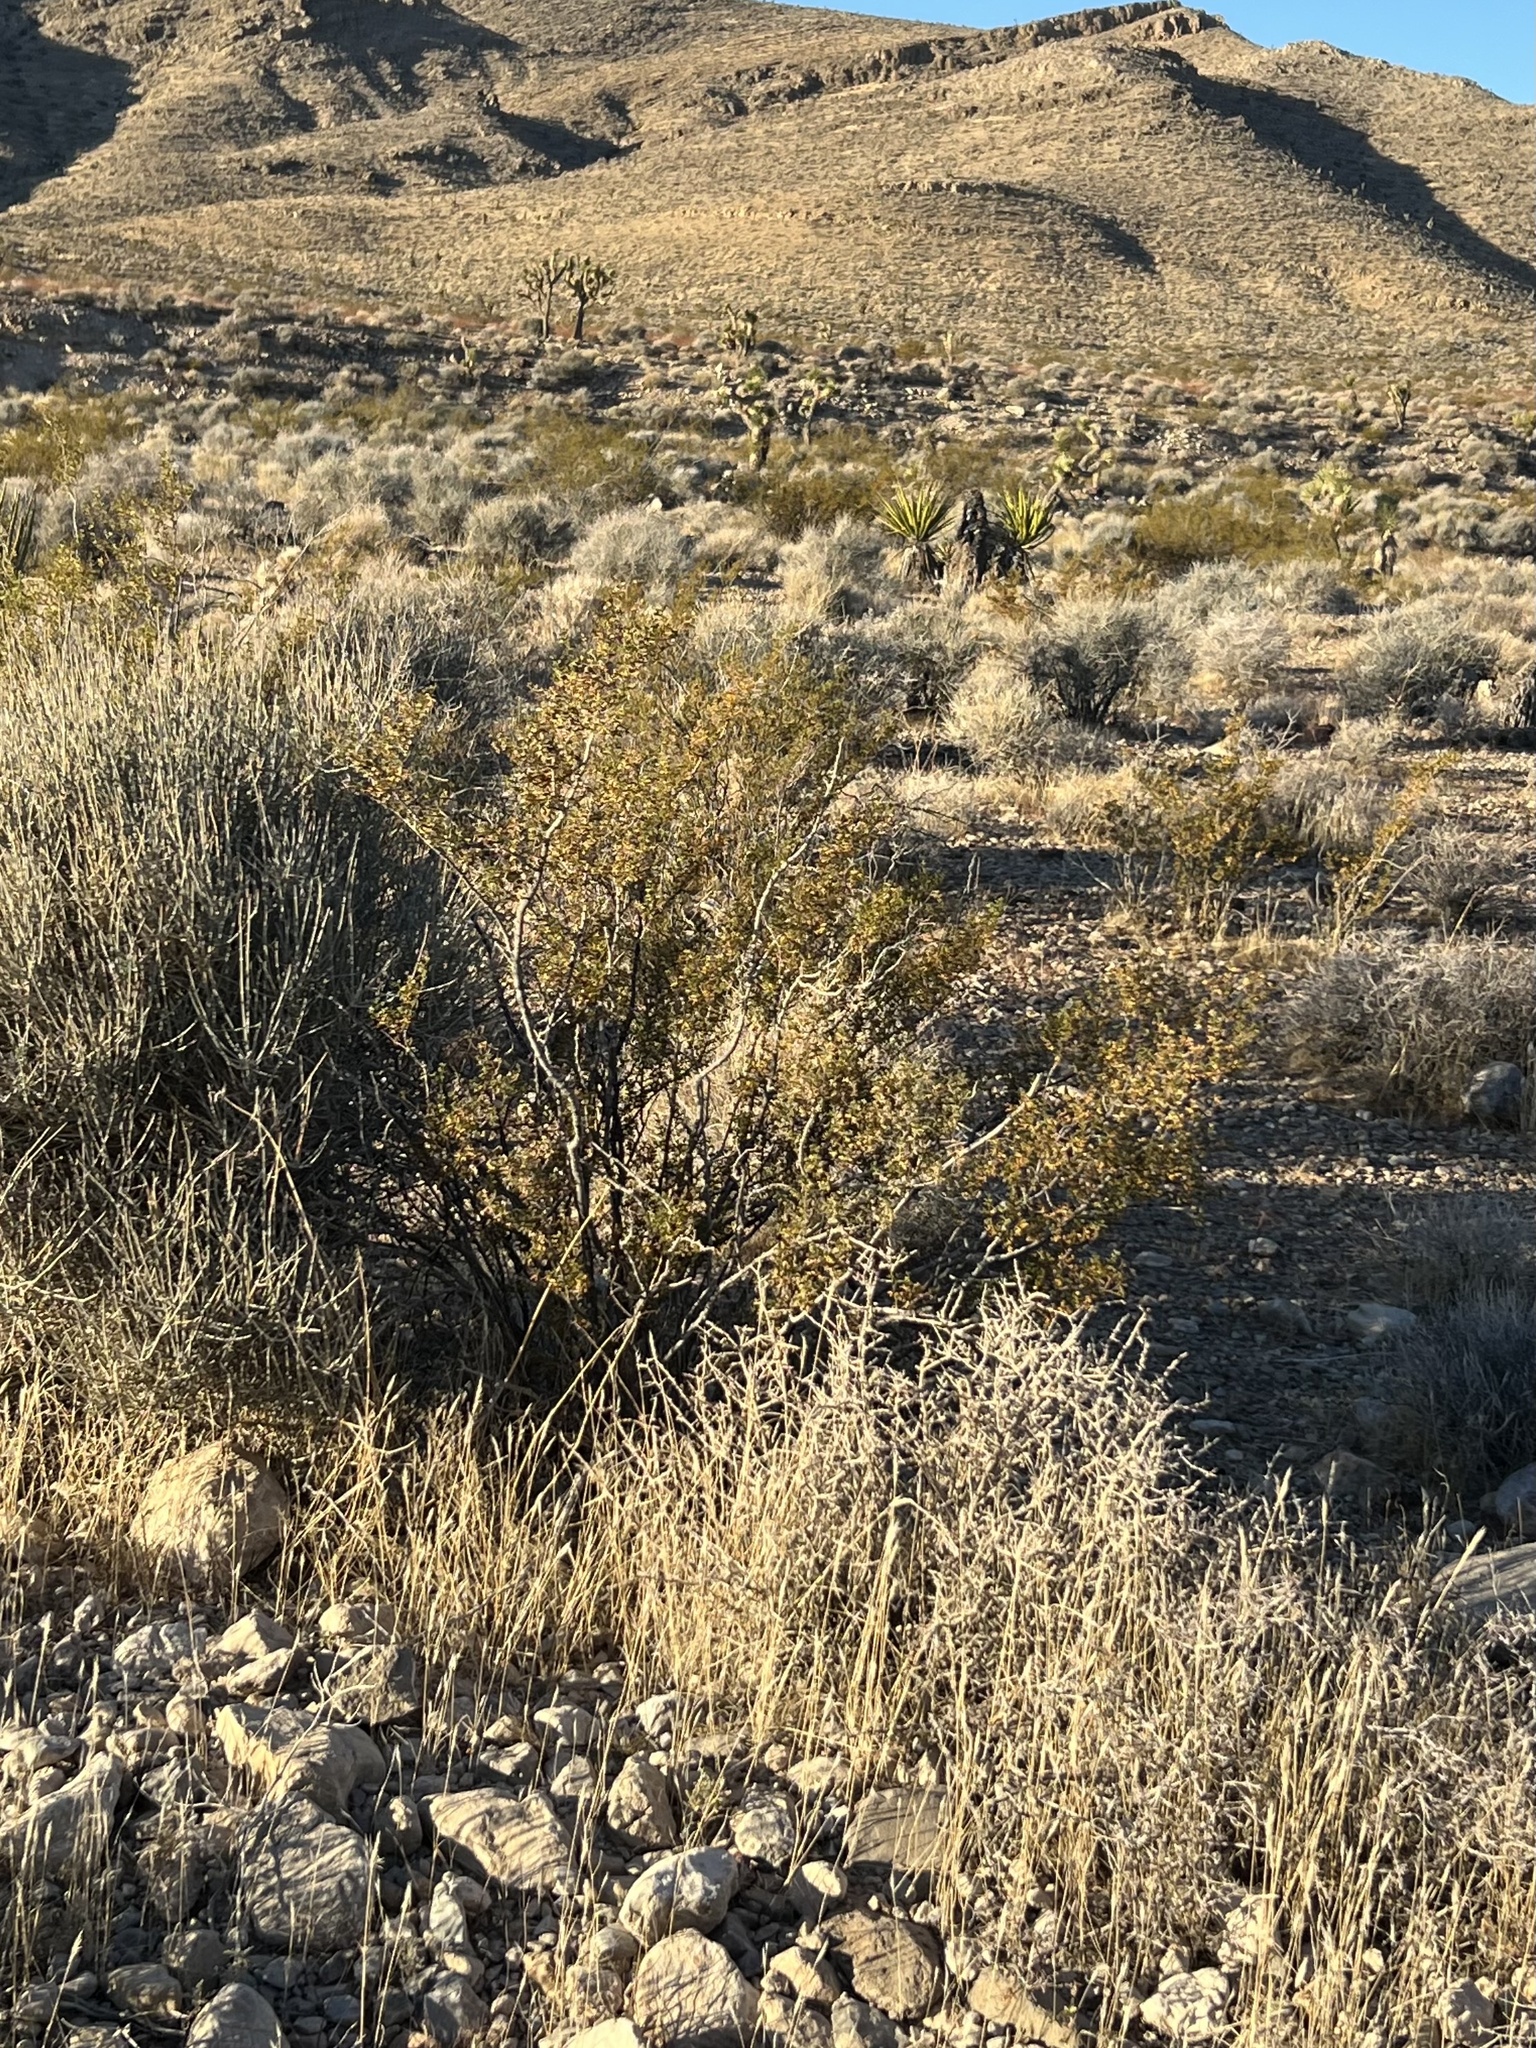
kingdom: Plantae
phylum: Tracheophyta
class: Magnoliopsida
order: Zygophyllales
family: Zygophyllaceae
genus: Larrea
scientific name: Larrea tridentata
